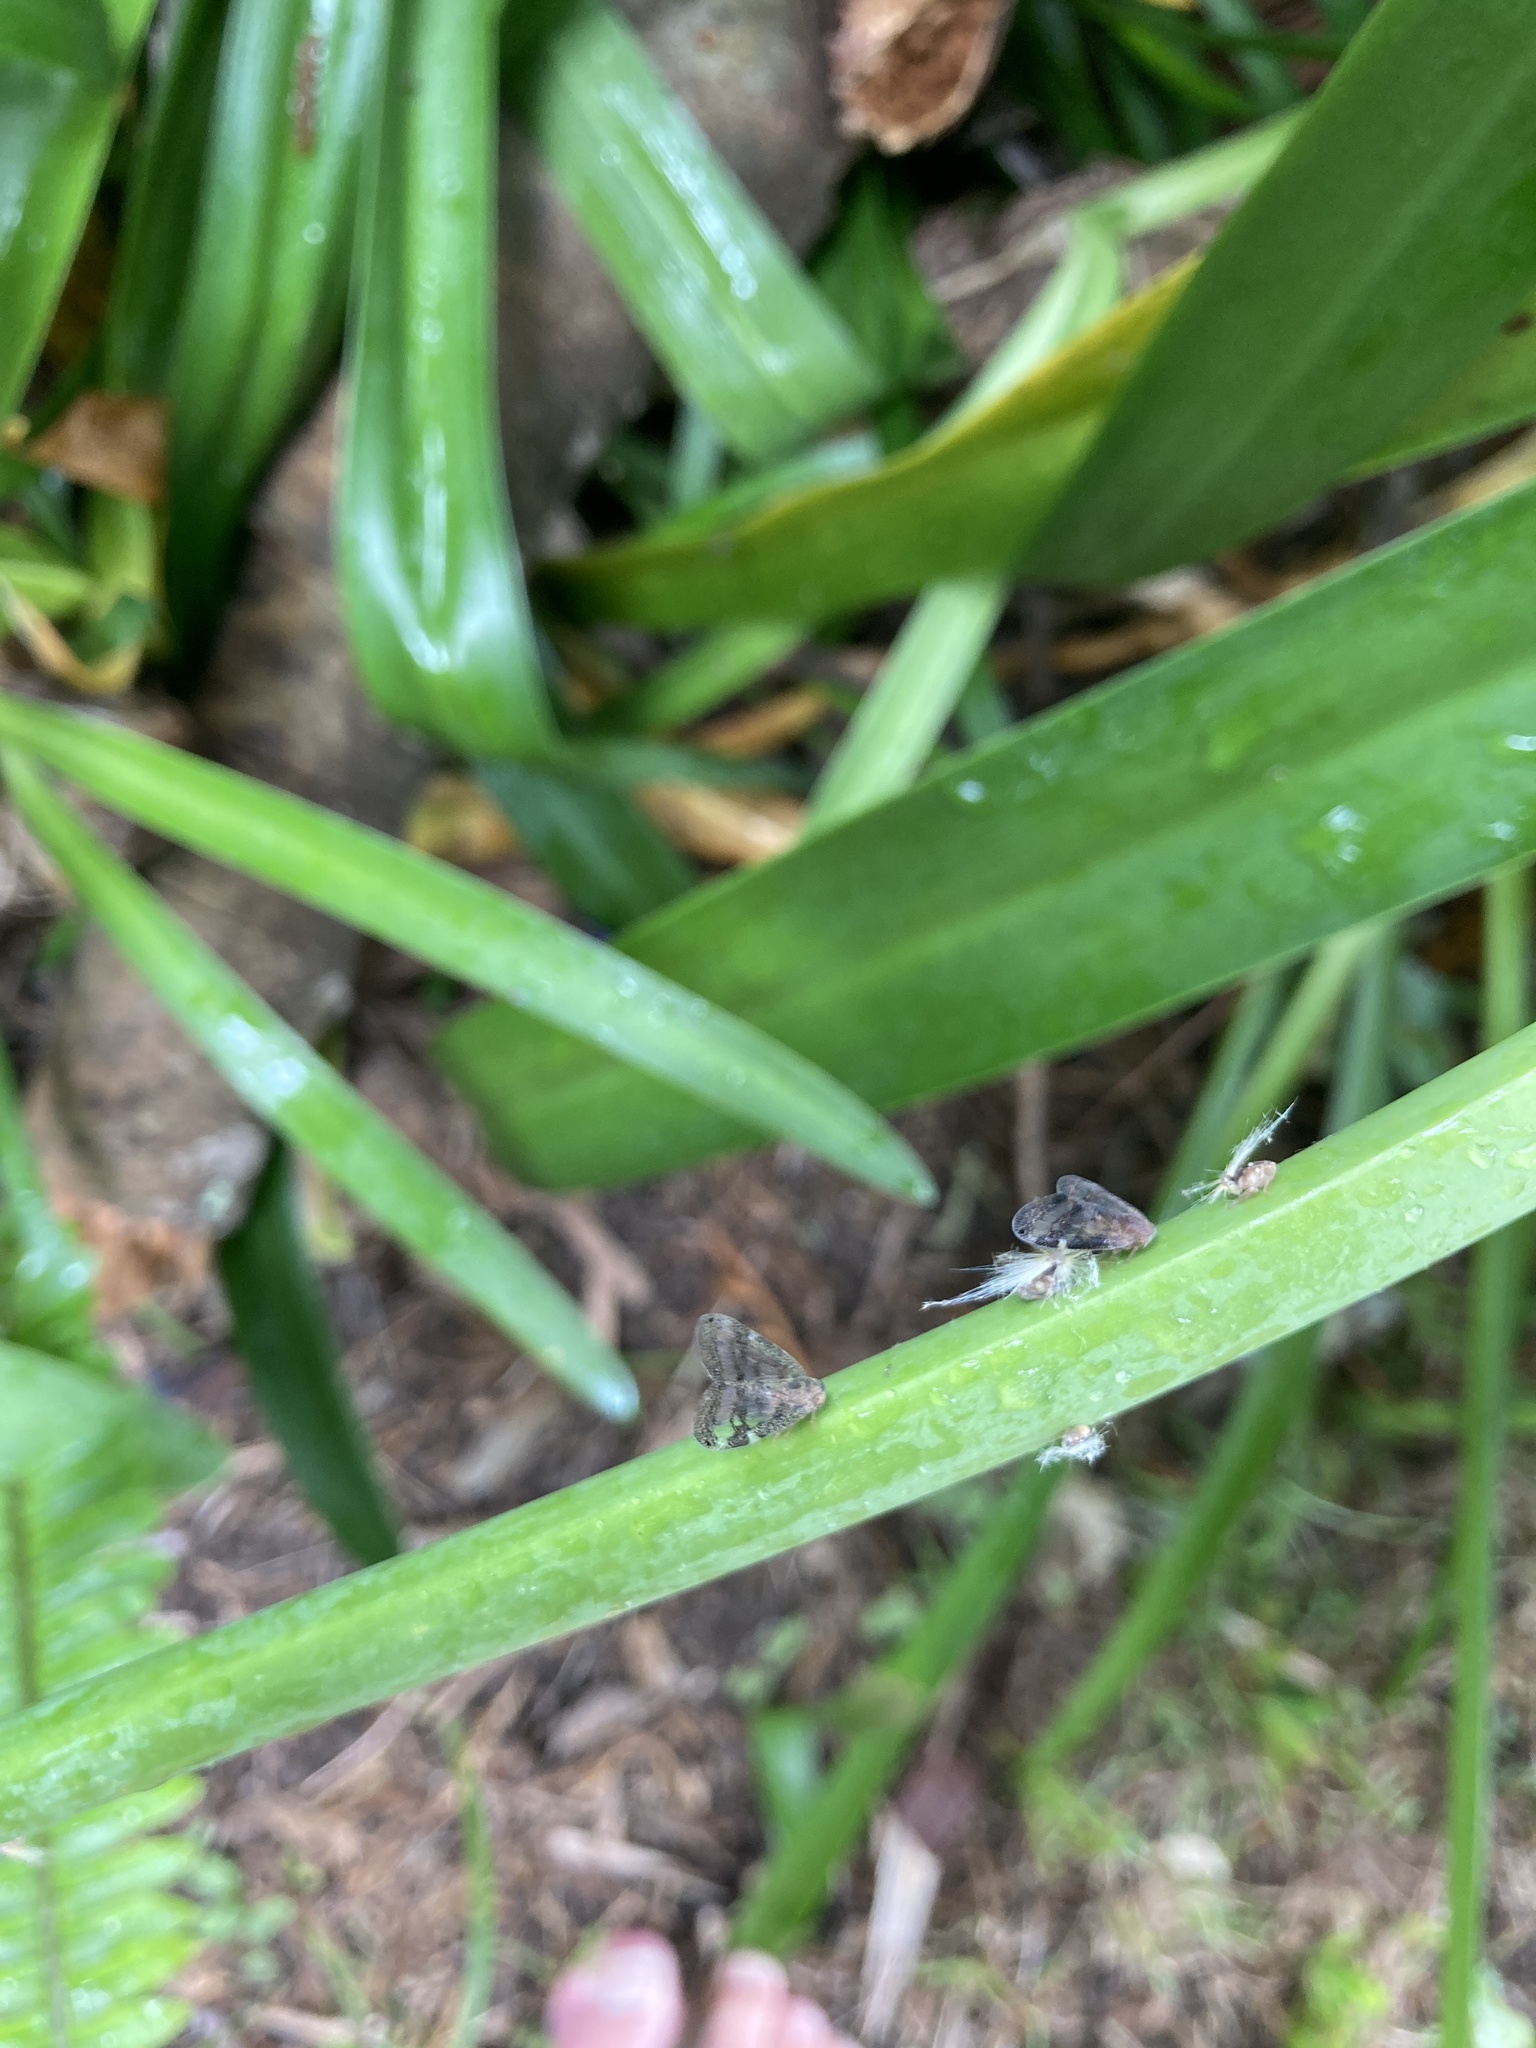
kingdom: Animalia
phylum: Arthropoda
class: Insecta
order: Hemiptera
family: Ricaniidae
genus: Scolypopa
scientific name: Scolypopa australis
